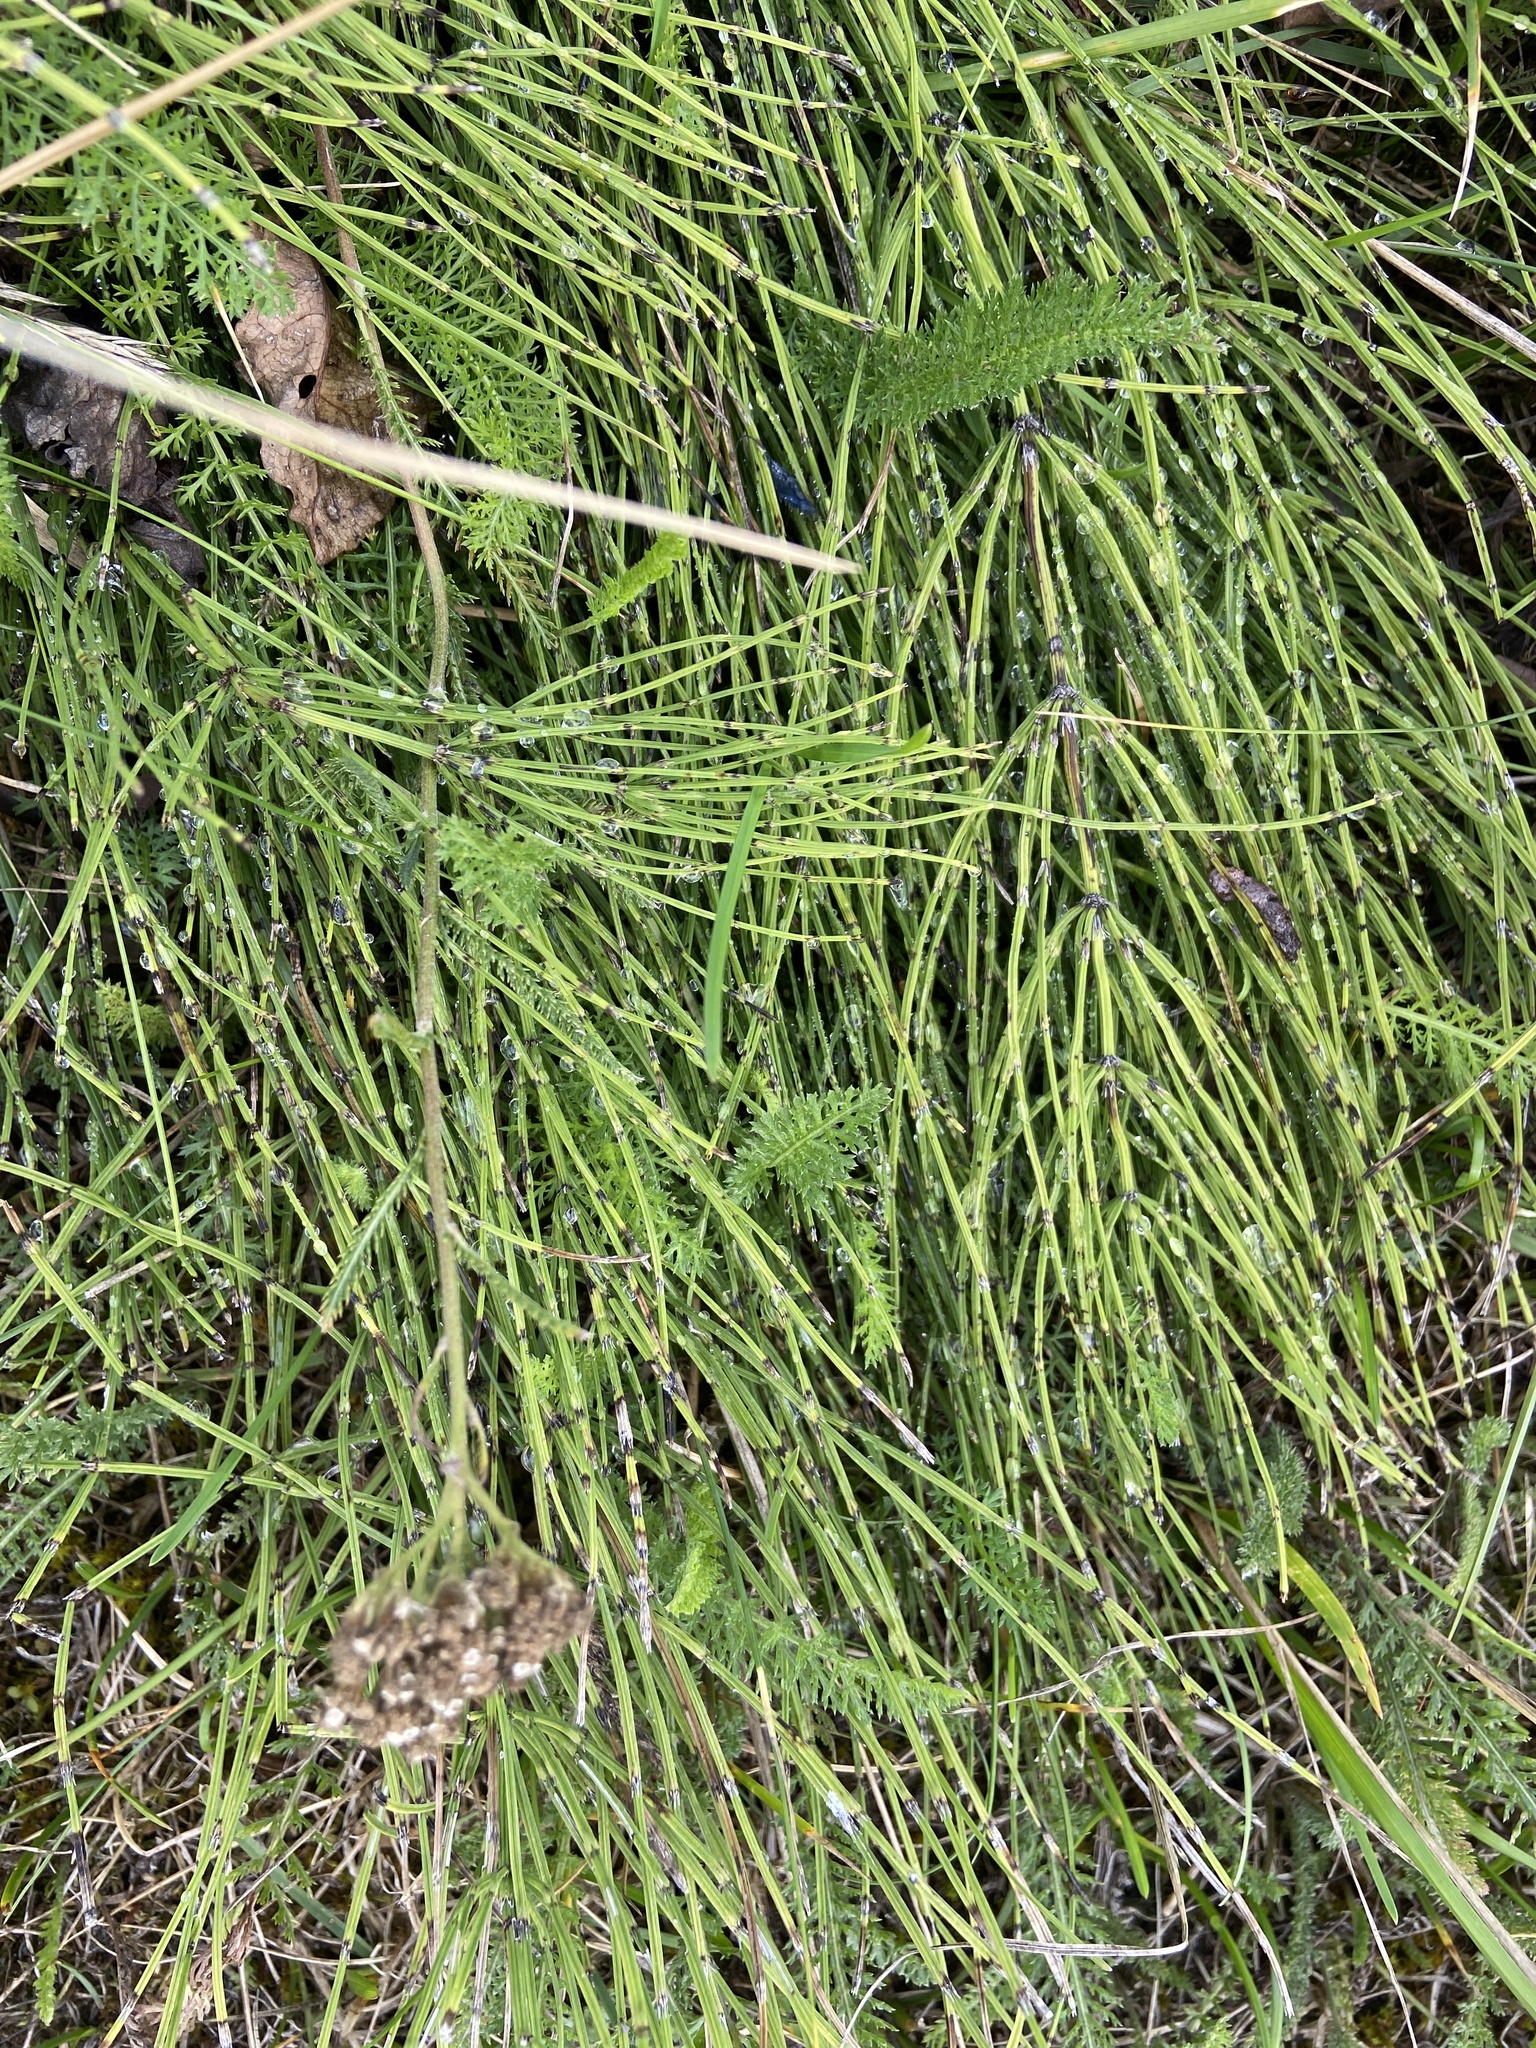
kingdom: Plantae
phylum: Tracheophyta
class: Polypodiopsida
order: Equisetales
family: Equisetaceae
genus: Equisetum
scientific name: Equisetum arvense
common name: Field horsetail
